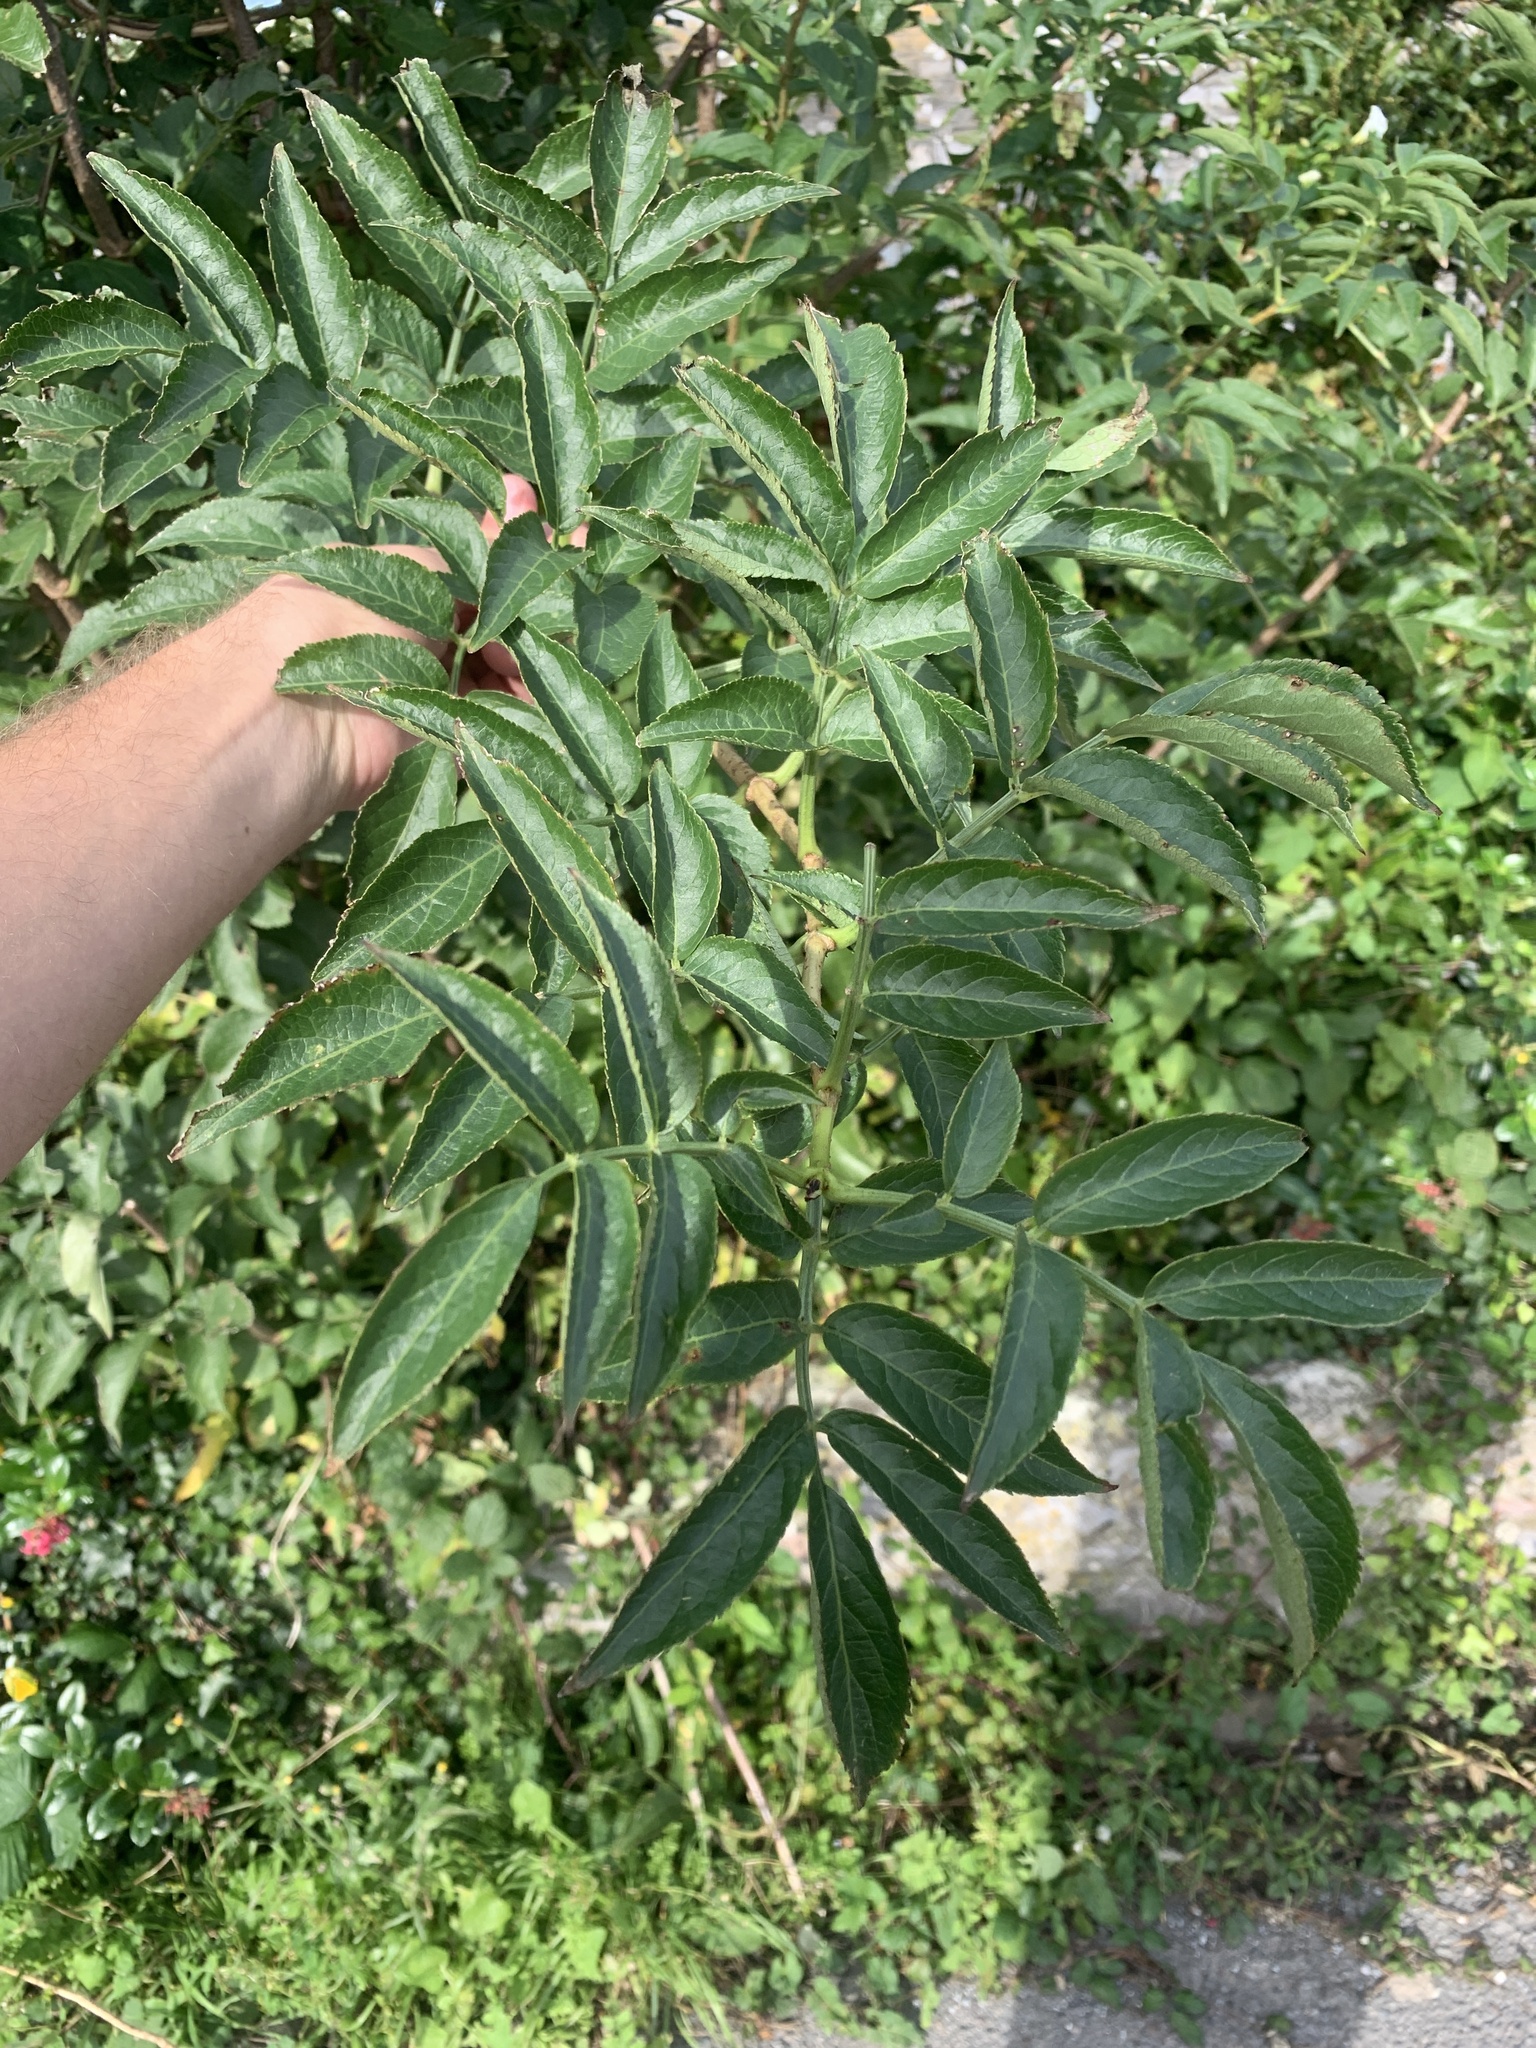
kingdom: Plantae
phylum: Tracheophyta
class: Magnoliopsida
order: Dipsacales
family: Viburnaceae
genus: Sambucus
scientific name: Sambucus nigra
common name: Elder
